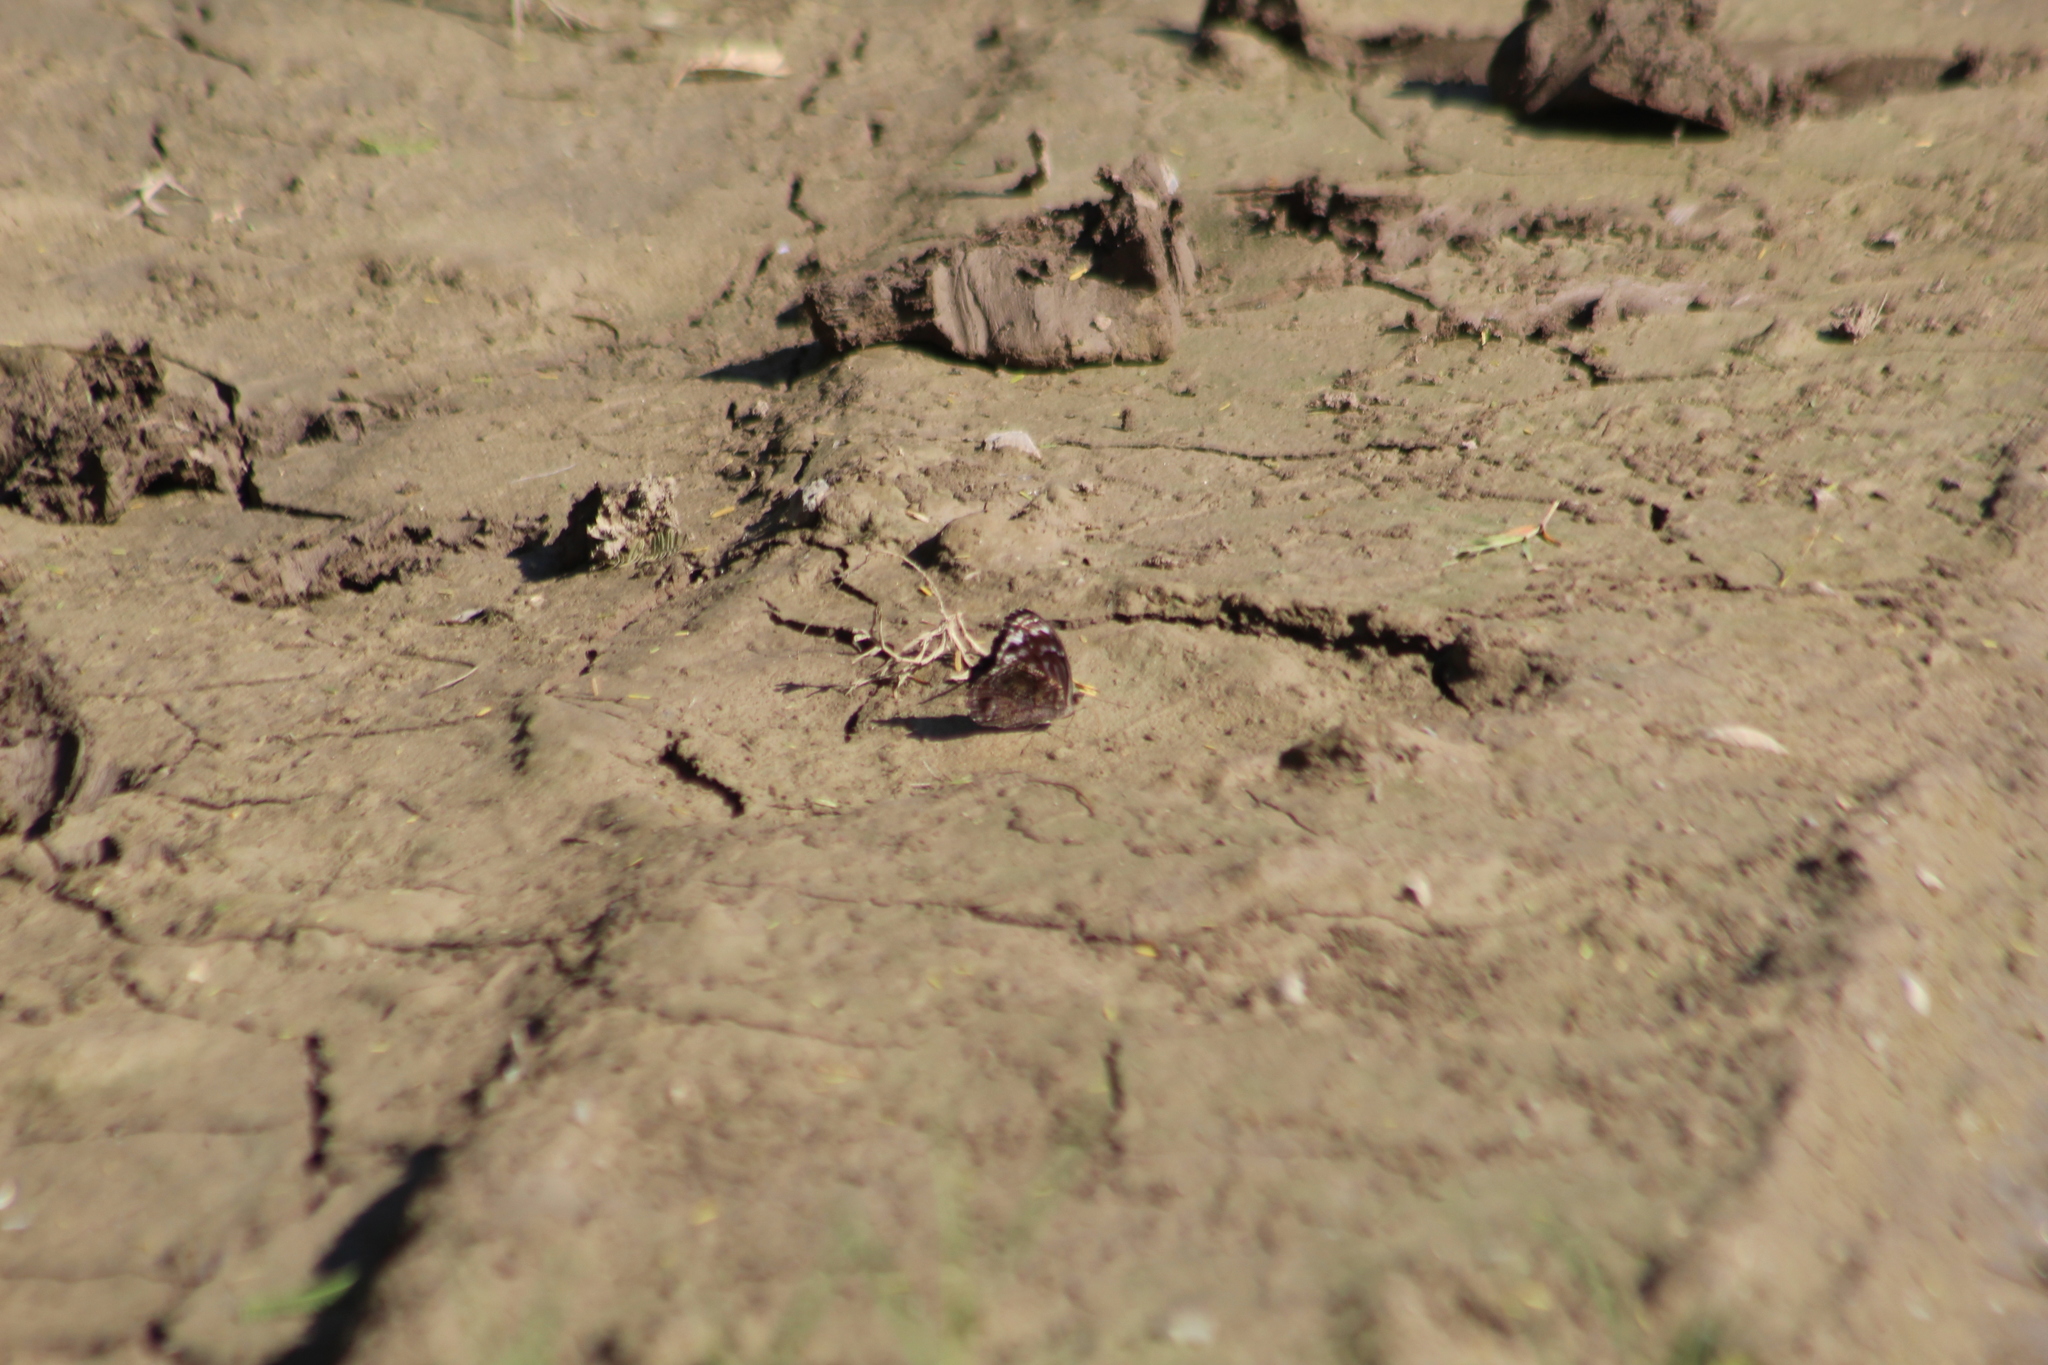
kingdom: Animalia
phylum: Arthropoda
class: Insecta
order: Lepidoptera
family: Nymphalidae
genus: Myscelia
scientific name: Myscelia ethusa
